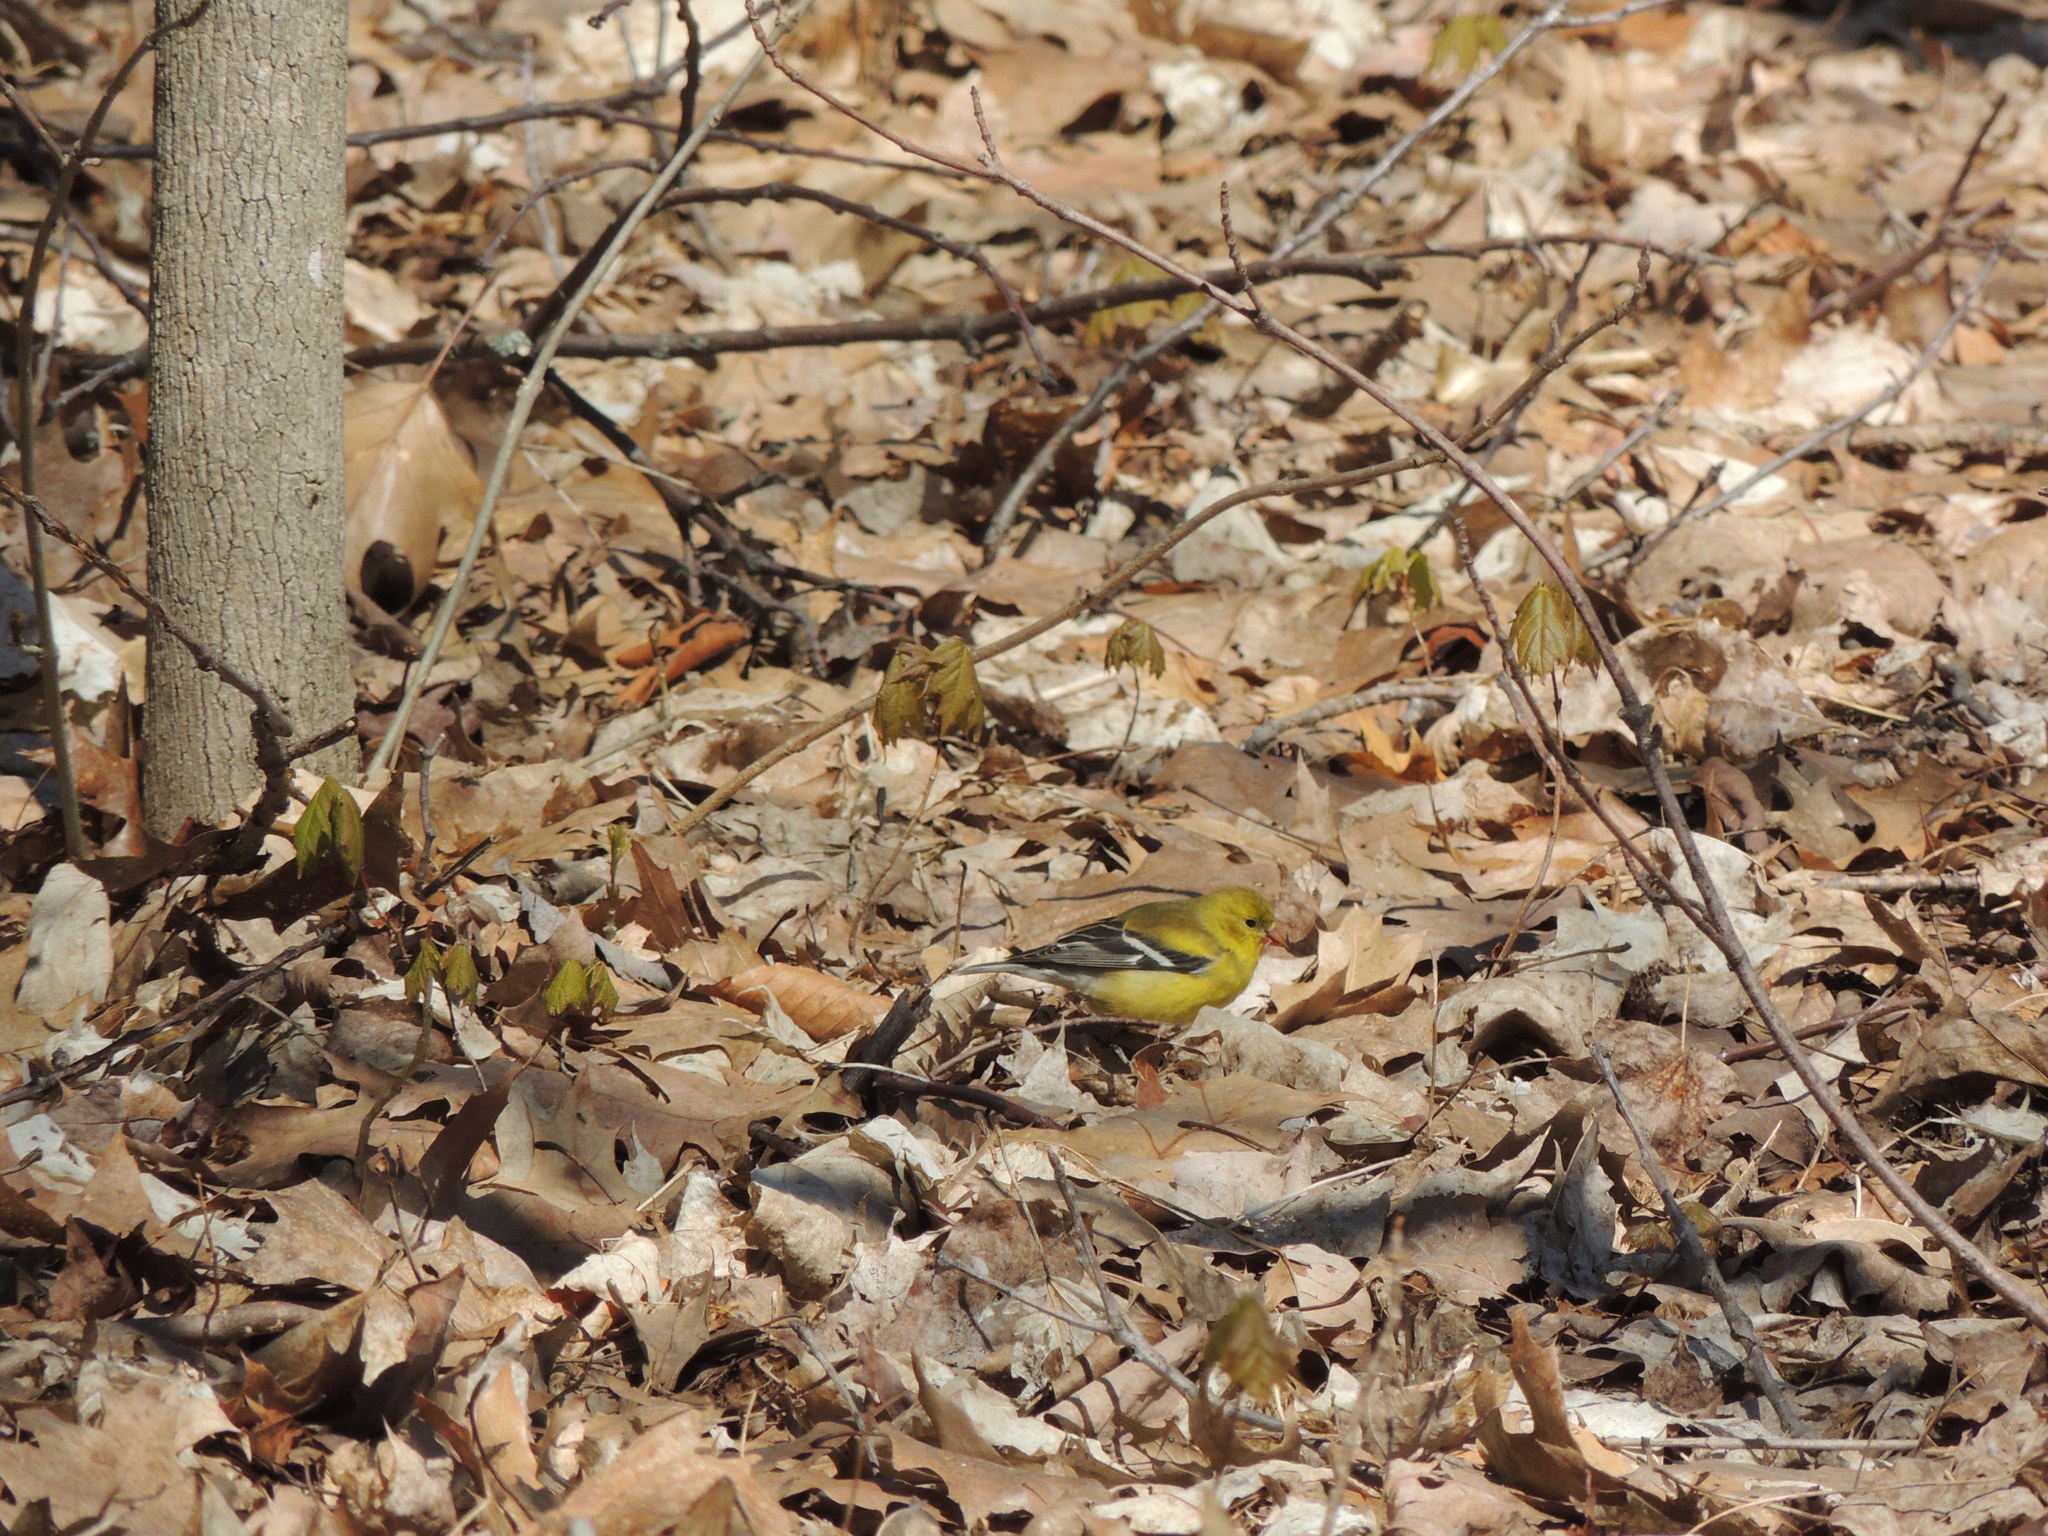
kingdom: Animalia
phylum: Chordata
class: Aves
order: Passeriformes
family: Fringillidae
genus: Spinus
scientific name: Spinus tristis
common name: American goldfinch
